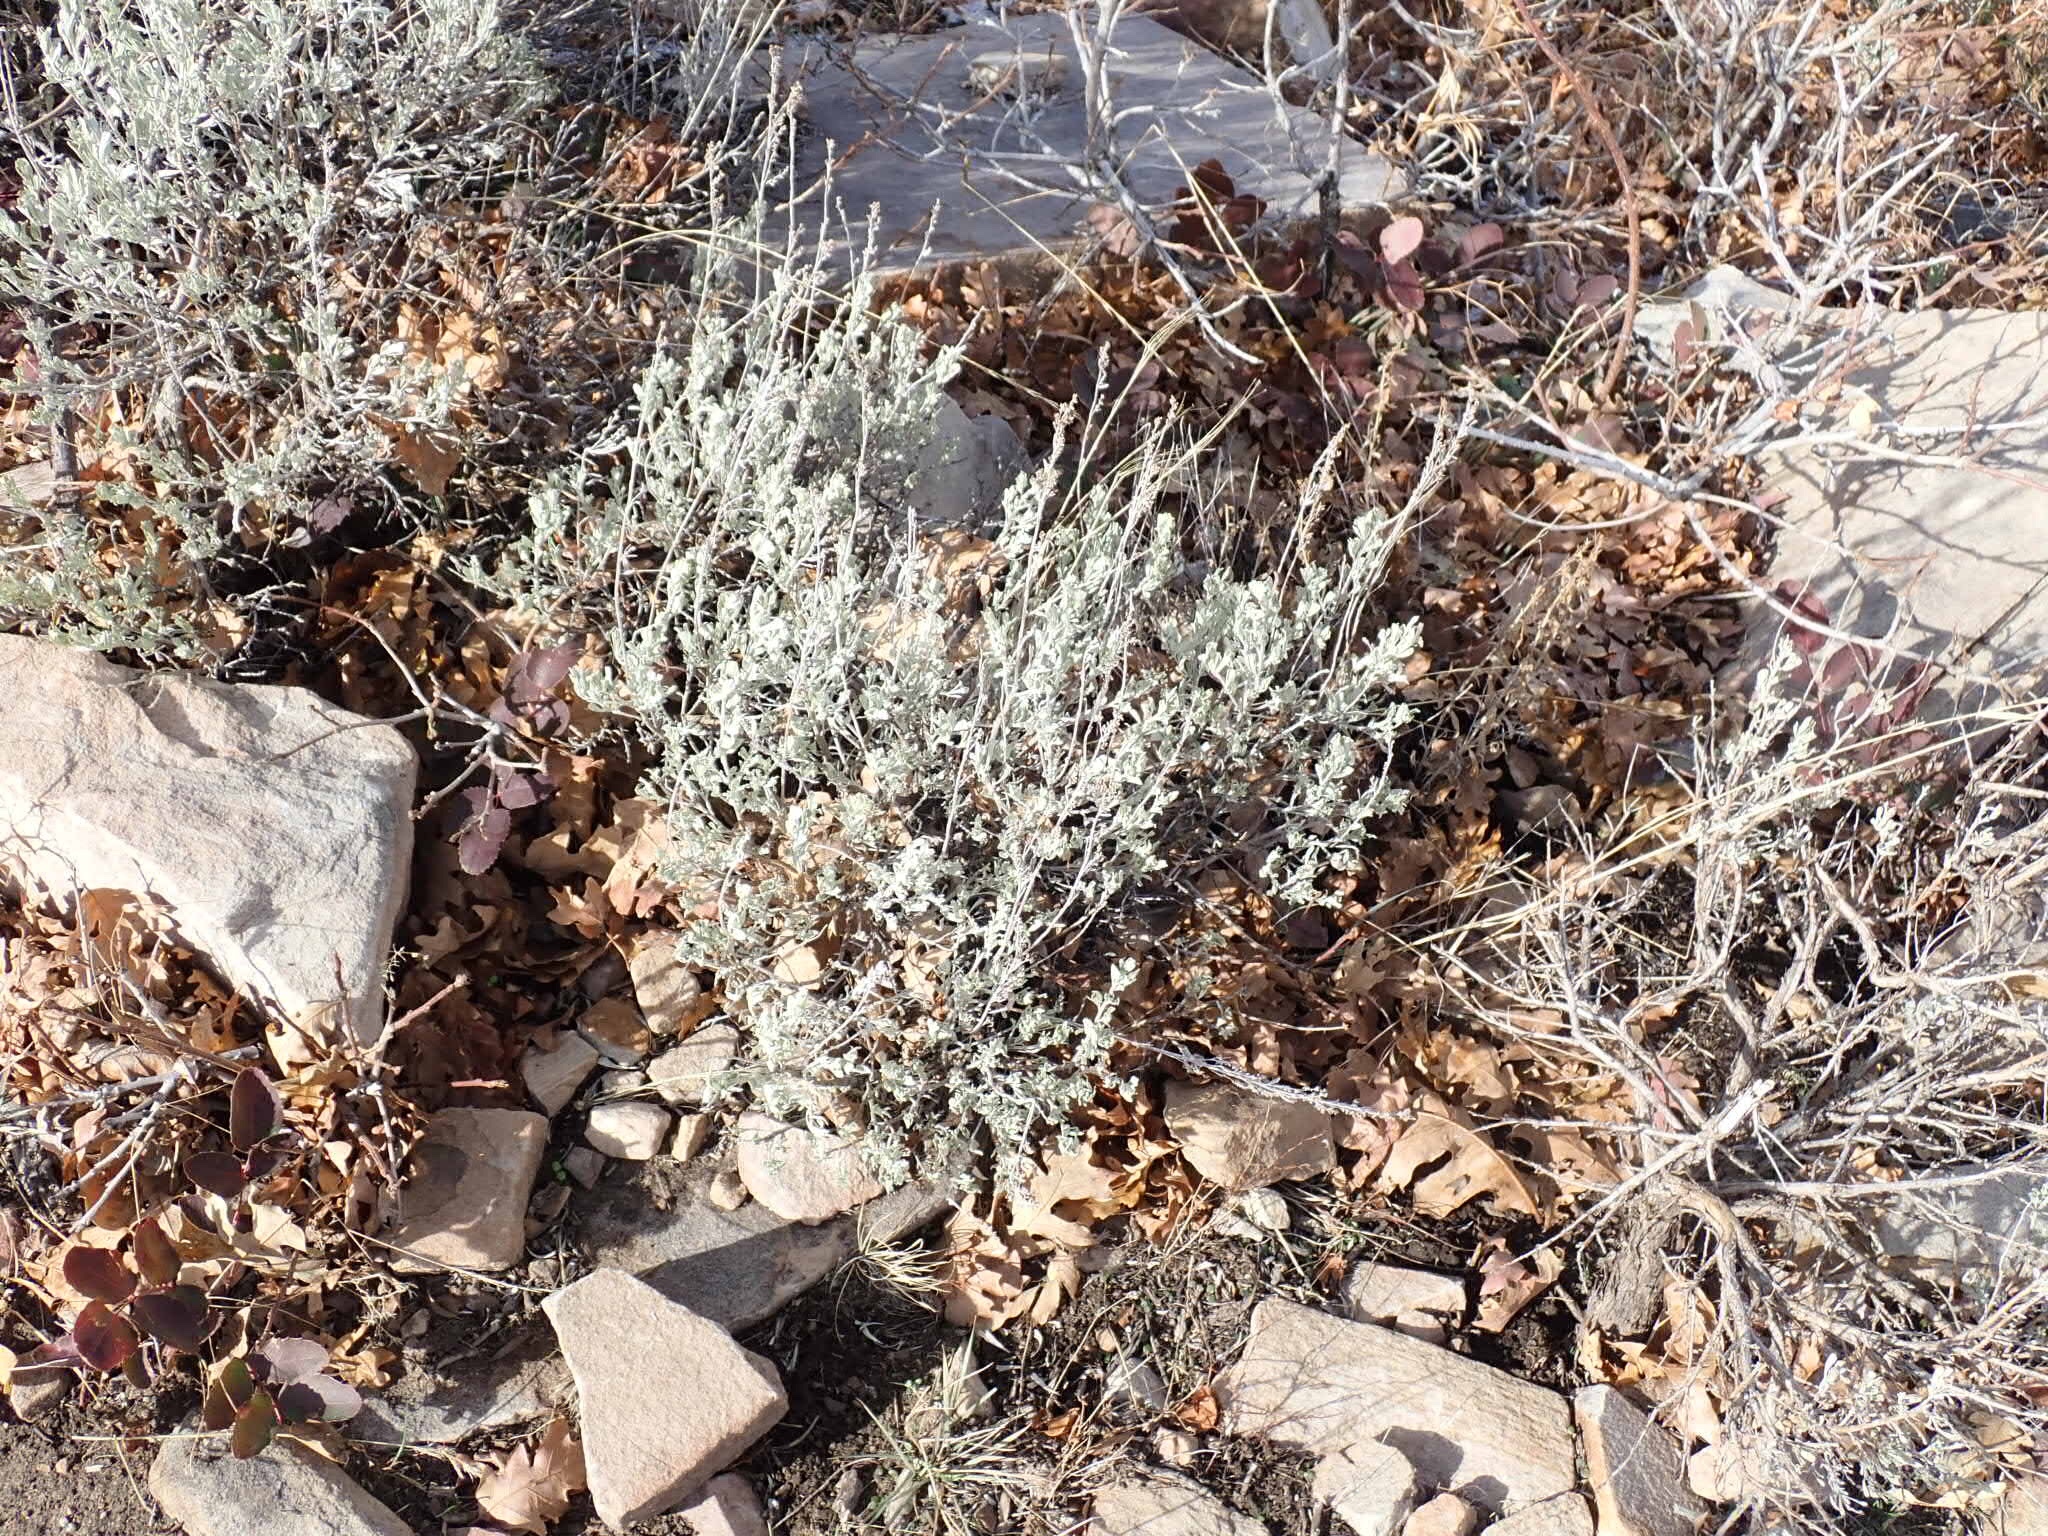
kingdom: Plantae
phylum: Tracheophyta
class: Magnoliopsida
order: Asterales
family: Asteraceae
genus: Artemisia
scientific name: Artemisia tridentata
